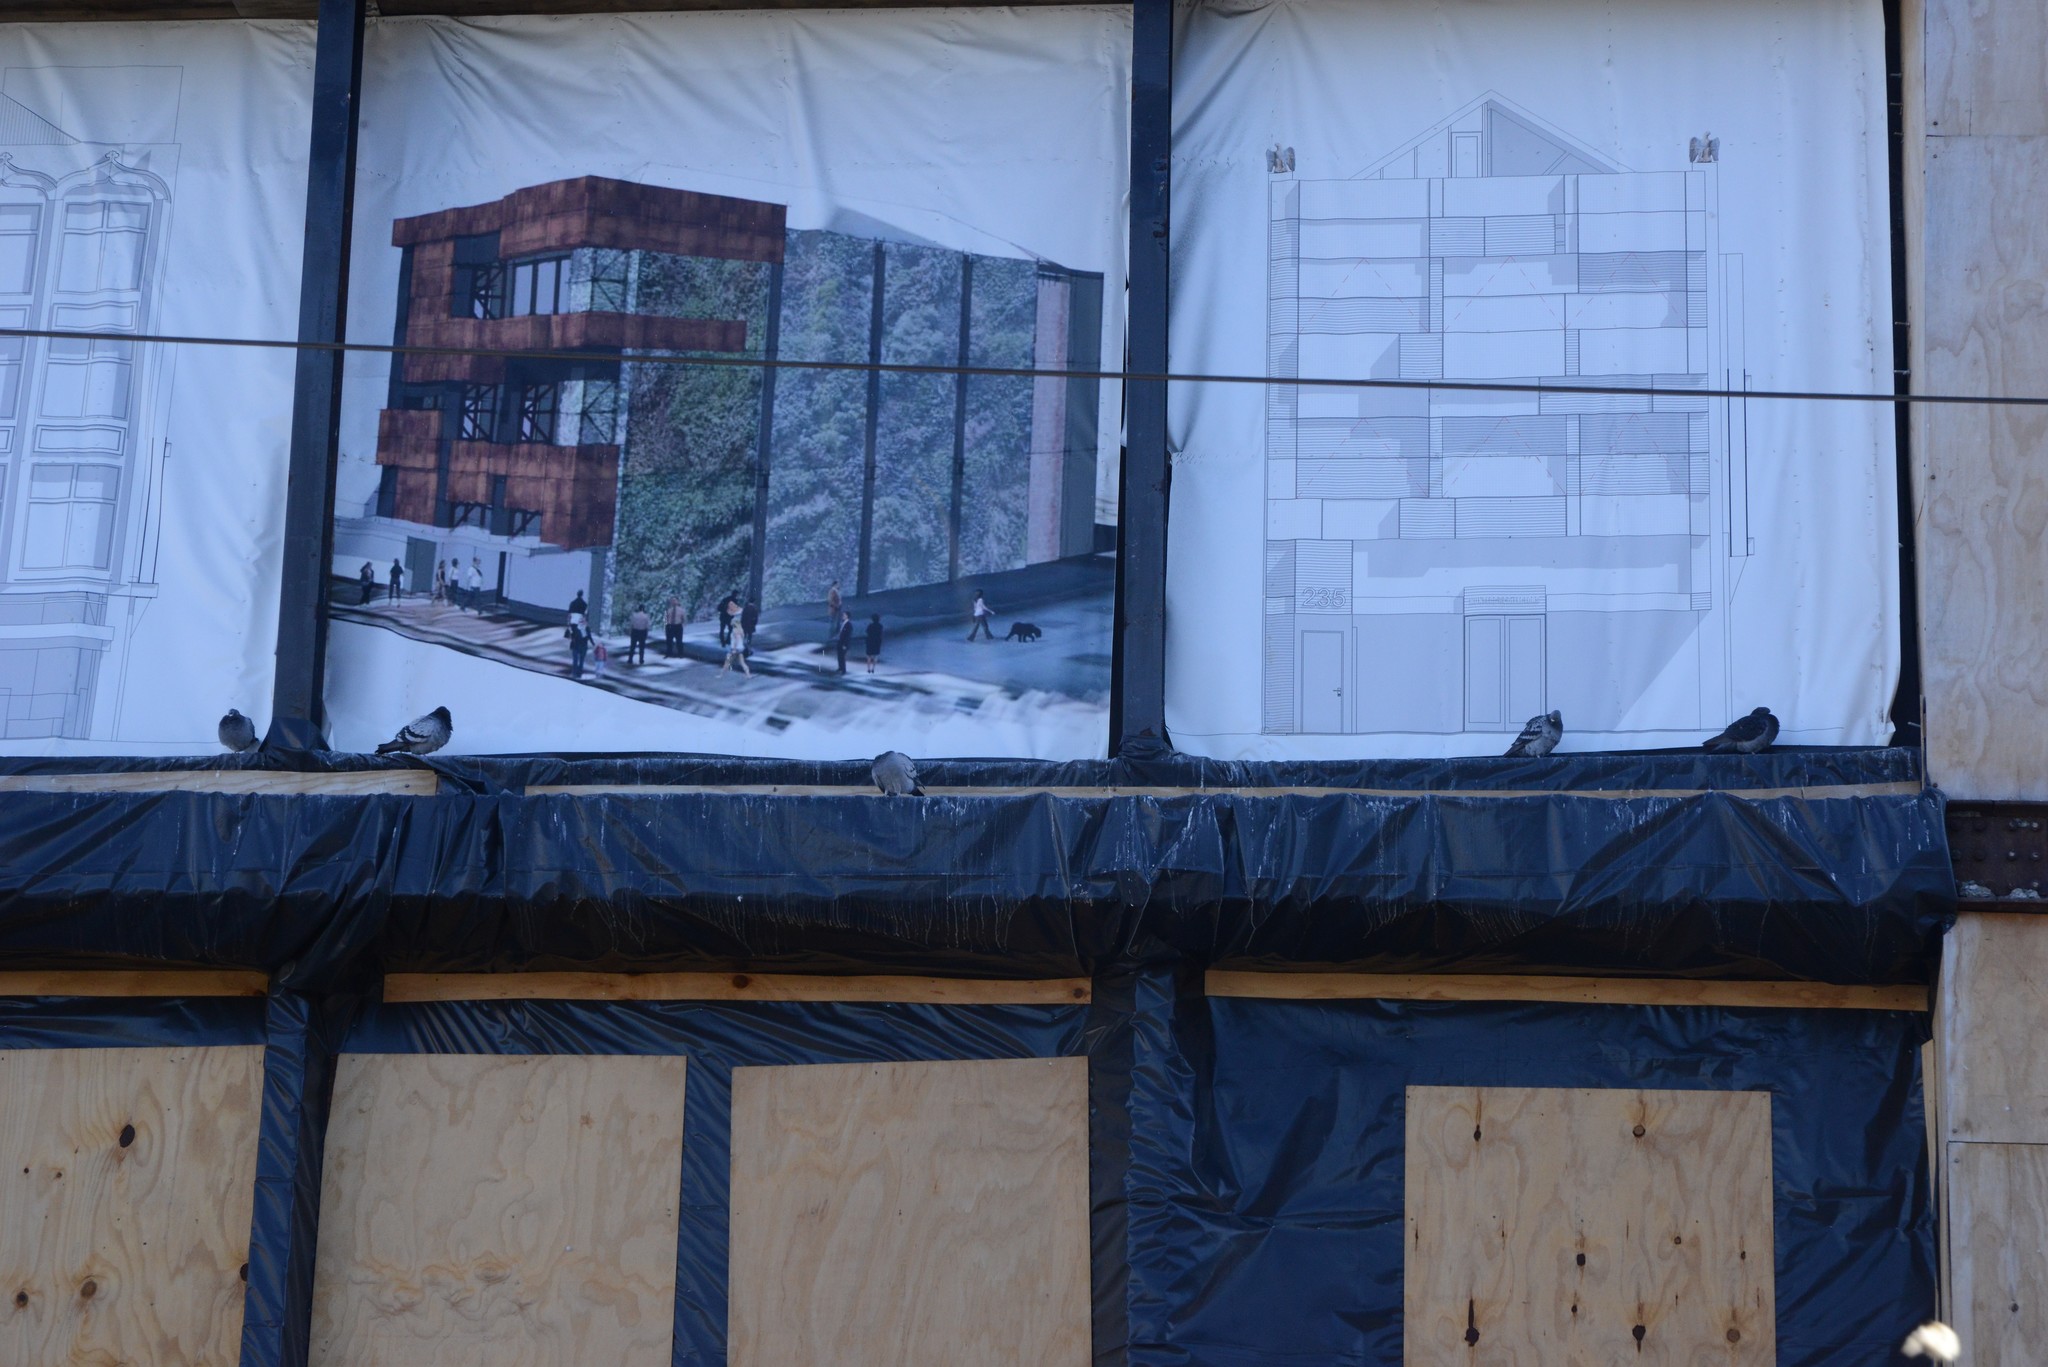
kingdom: Animalia
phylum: Chordata
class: Aves
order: Columbiformes
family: Columbidae
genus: Columba
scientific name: Columba livia
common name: Rock pigeon
